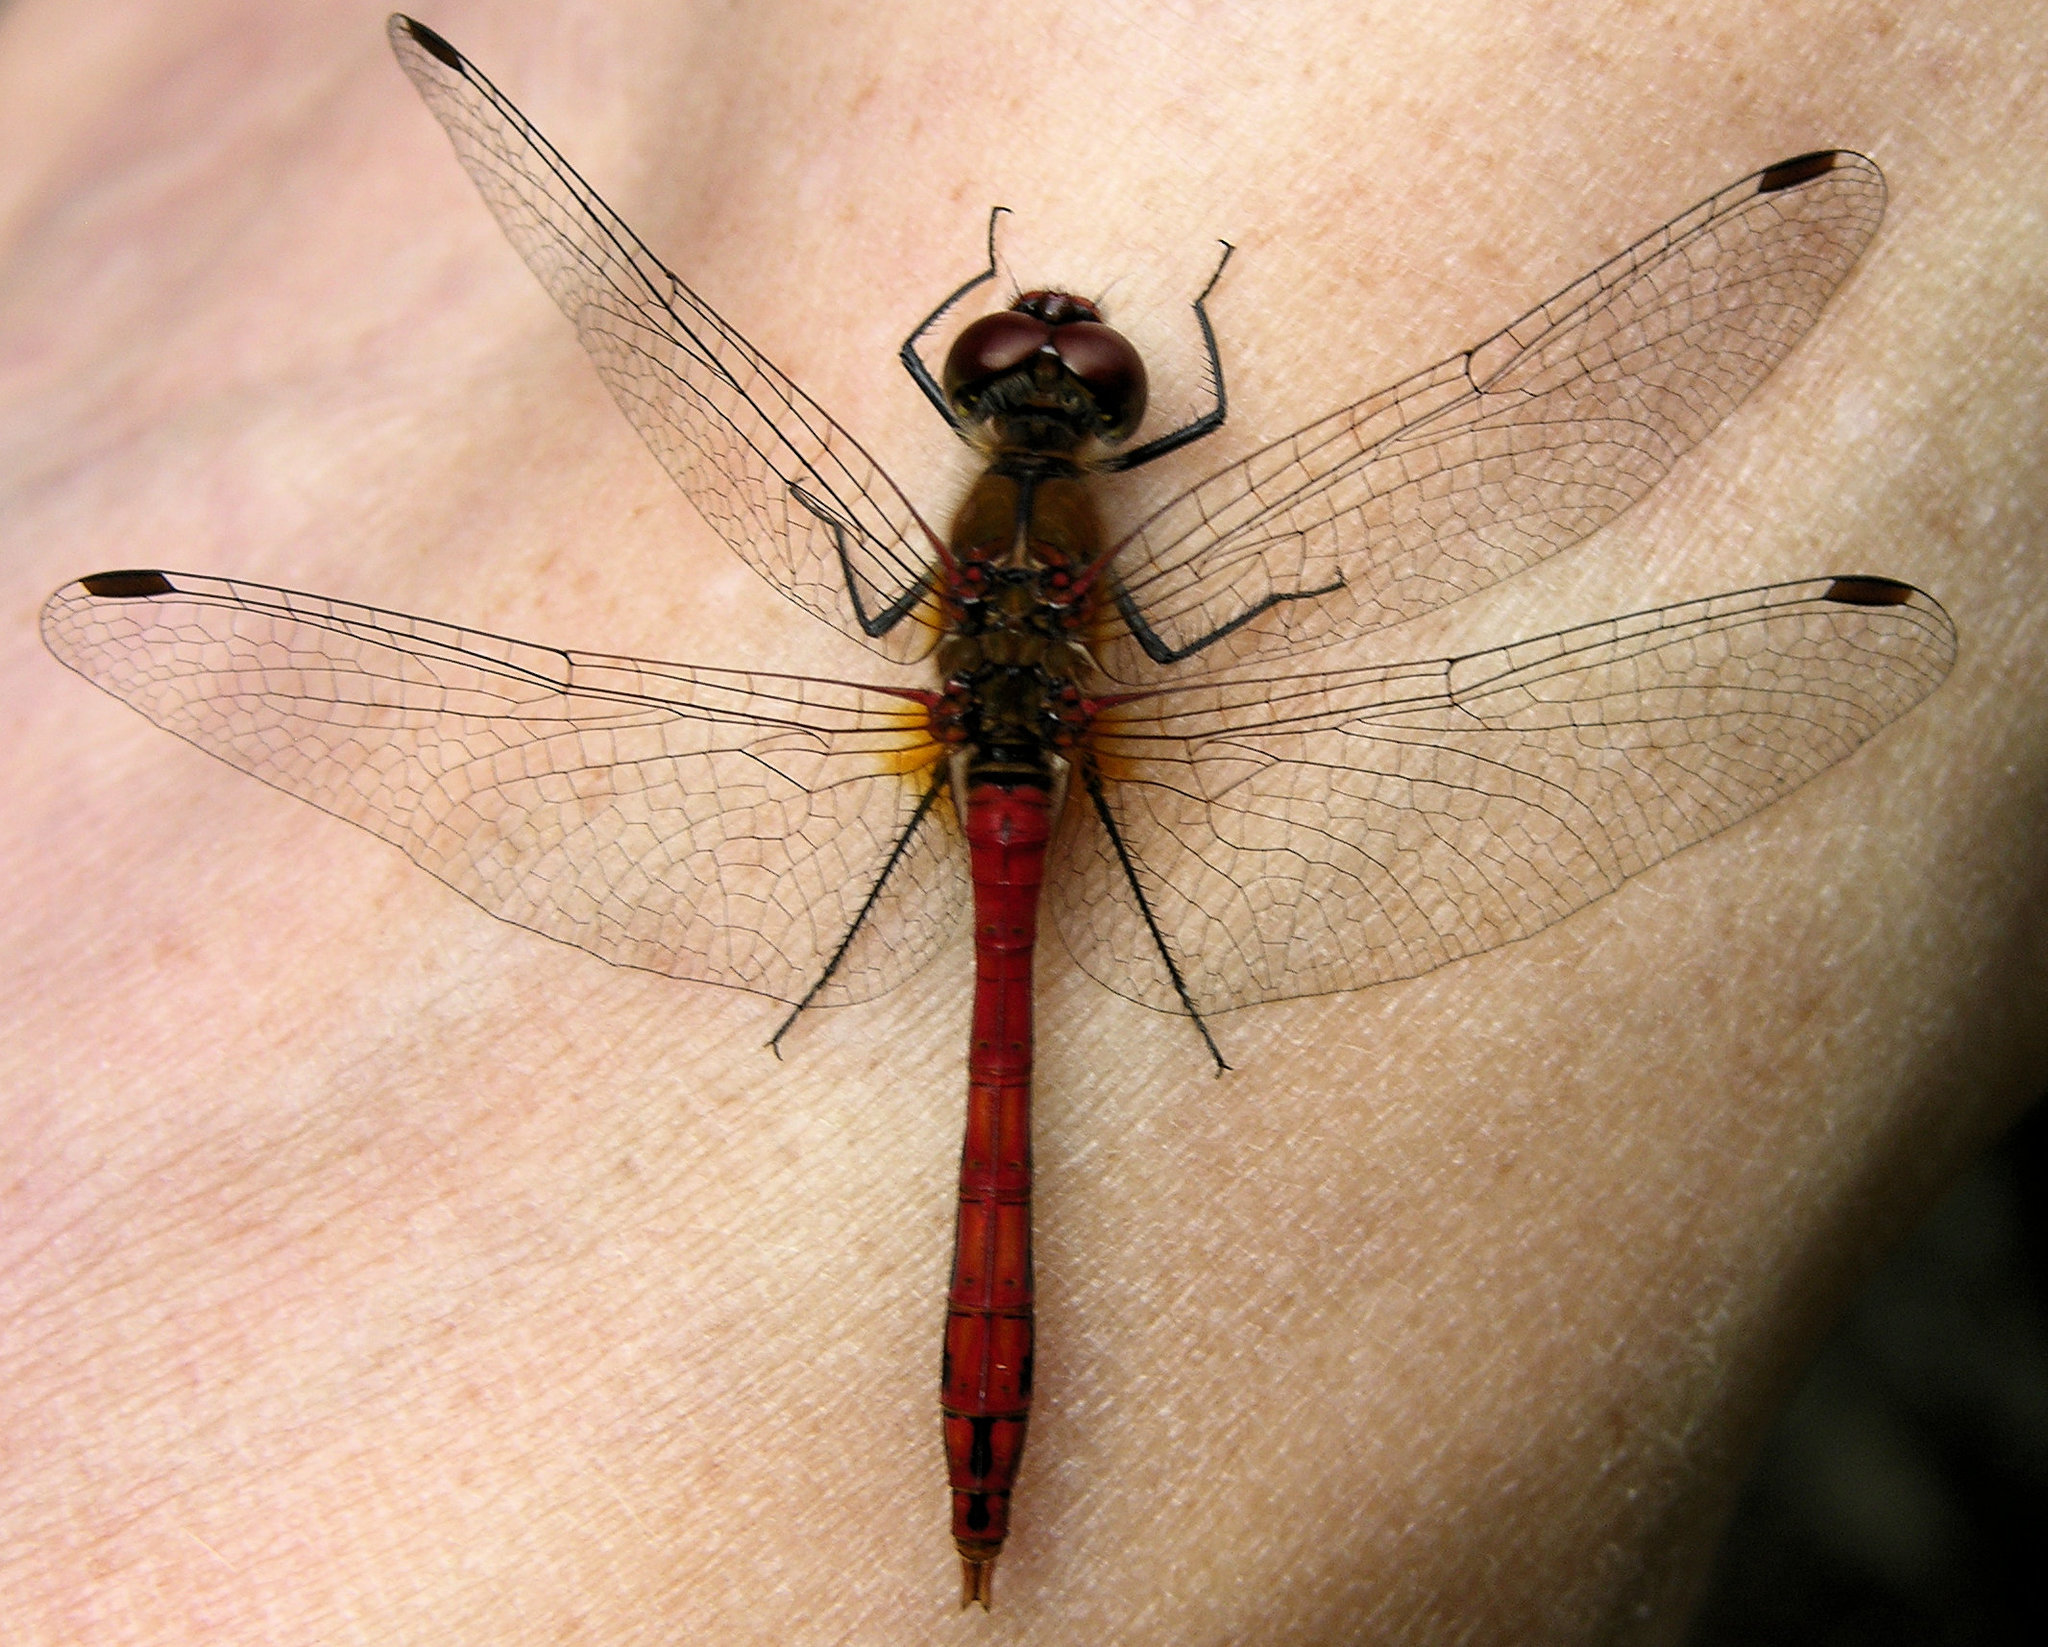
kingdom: Animalia
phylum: Arthropoda
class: Insecta
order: Odonata
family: Libellulidae
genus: Sympetrum
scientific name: Sympetrum sanguineum
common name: Ruddy darter
